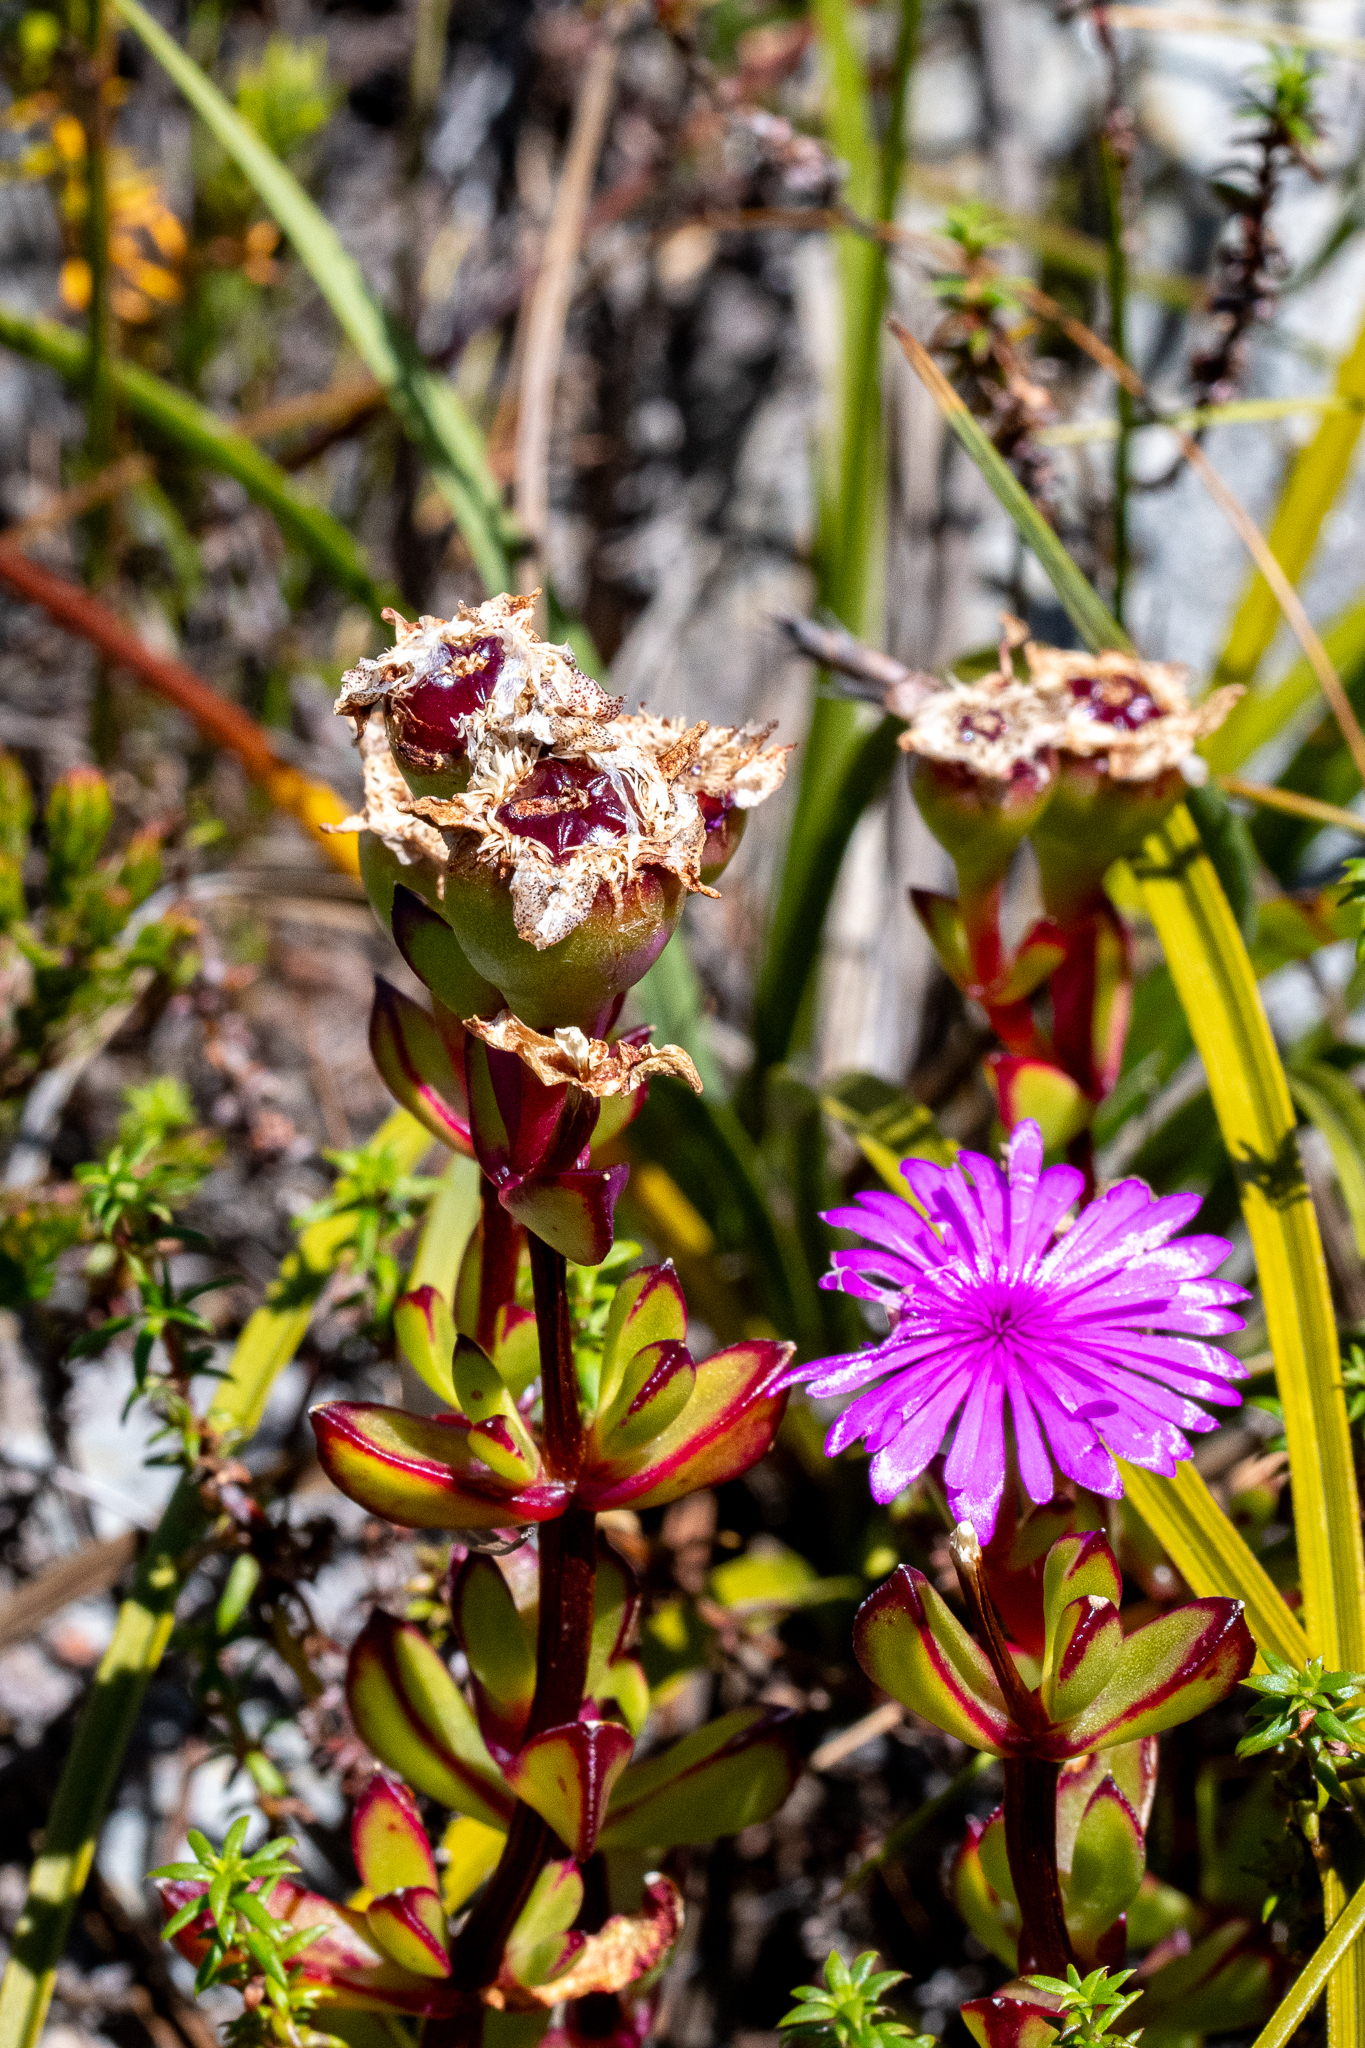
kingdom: Plantae
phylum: Tracheophyta
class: Magnoliopsida
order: Caryophyllales
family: Aizoaceae
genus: Erepsia
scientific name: Erepsia inclaudens
